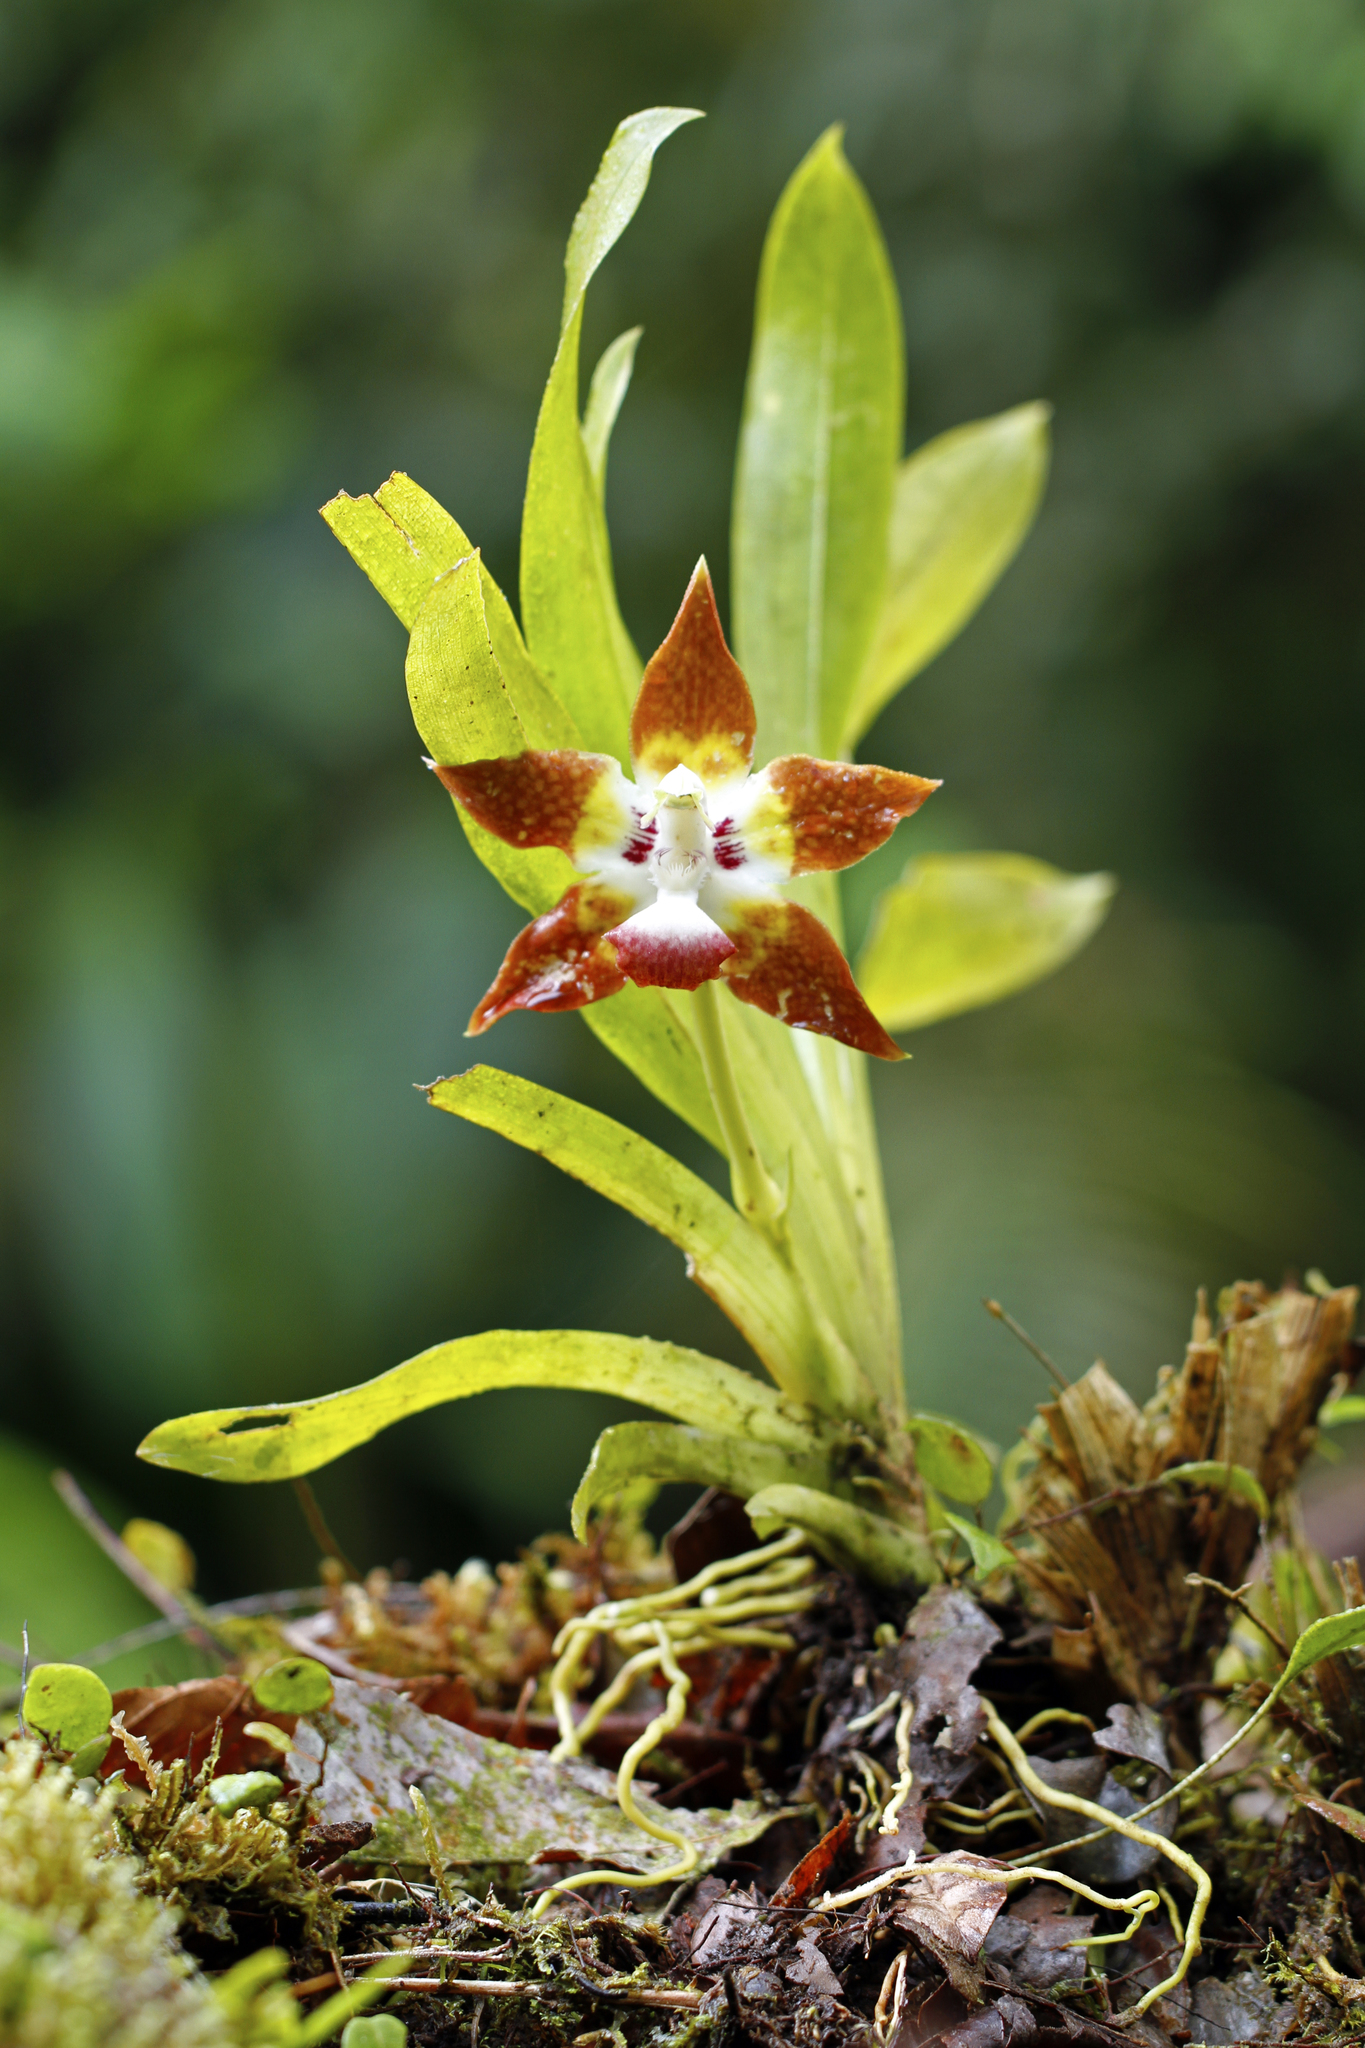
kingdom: Plantae
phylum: Tracheophyta
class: Liliopsida
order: Asparagales
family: Orchidaceae
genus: Huntleya
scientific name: Huntleya burtii
